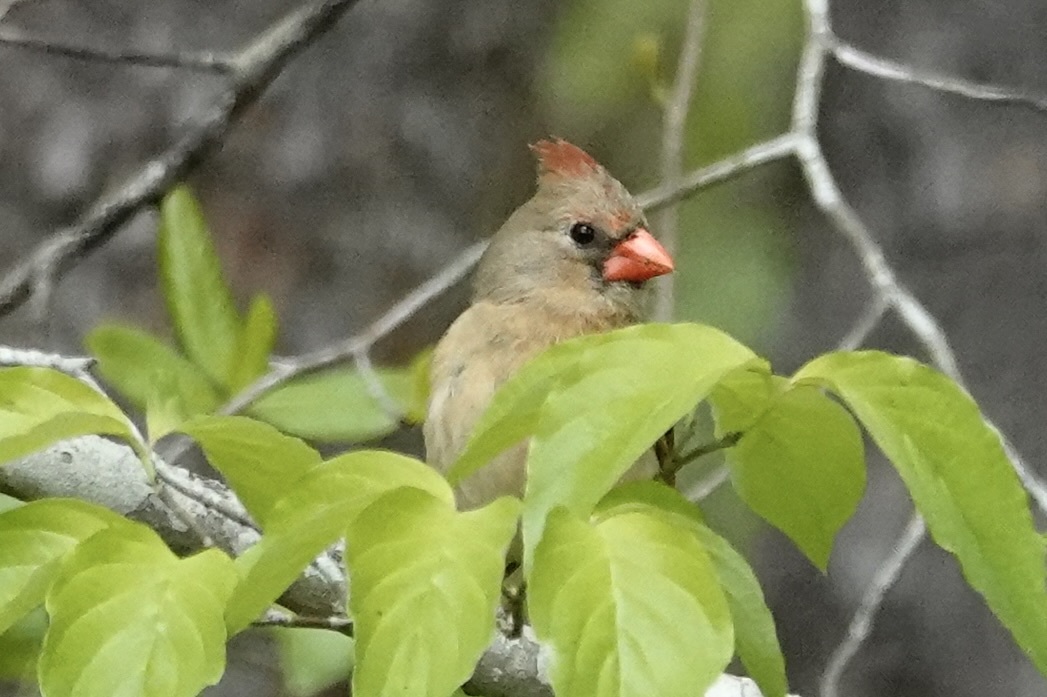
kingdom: Animalia
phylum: Chordata
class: Aves
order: Passeriformes
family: Cardinalidae
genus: Cardinalis
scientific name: Cardinalis cardinalis
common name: Northern cardinal
